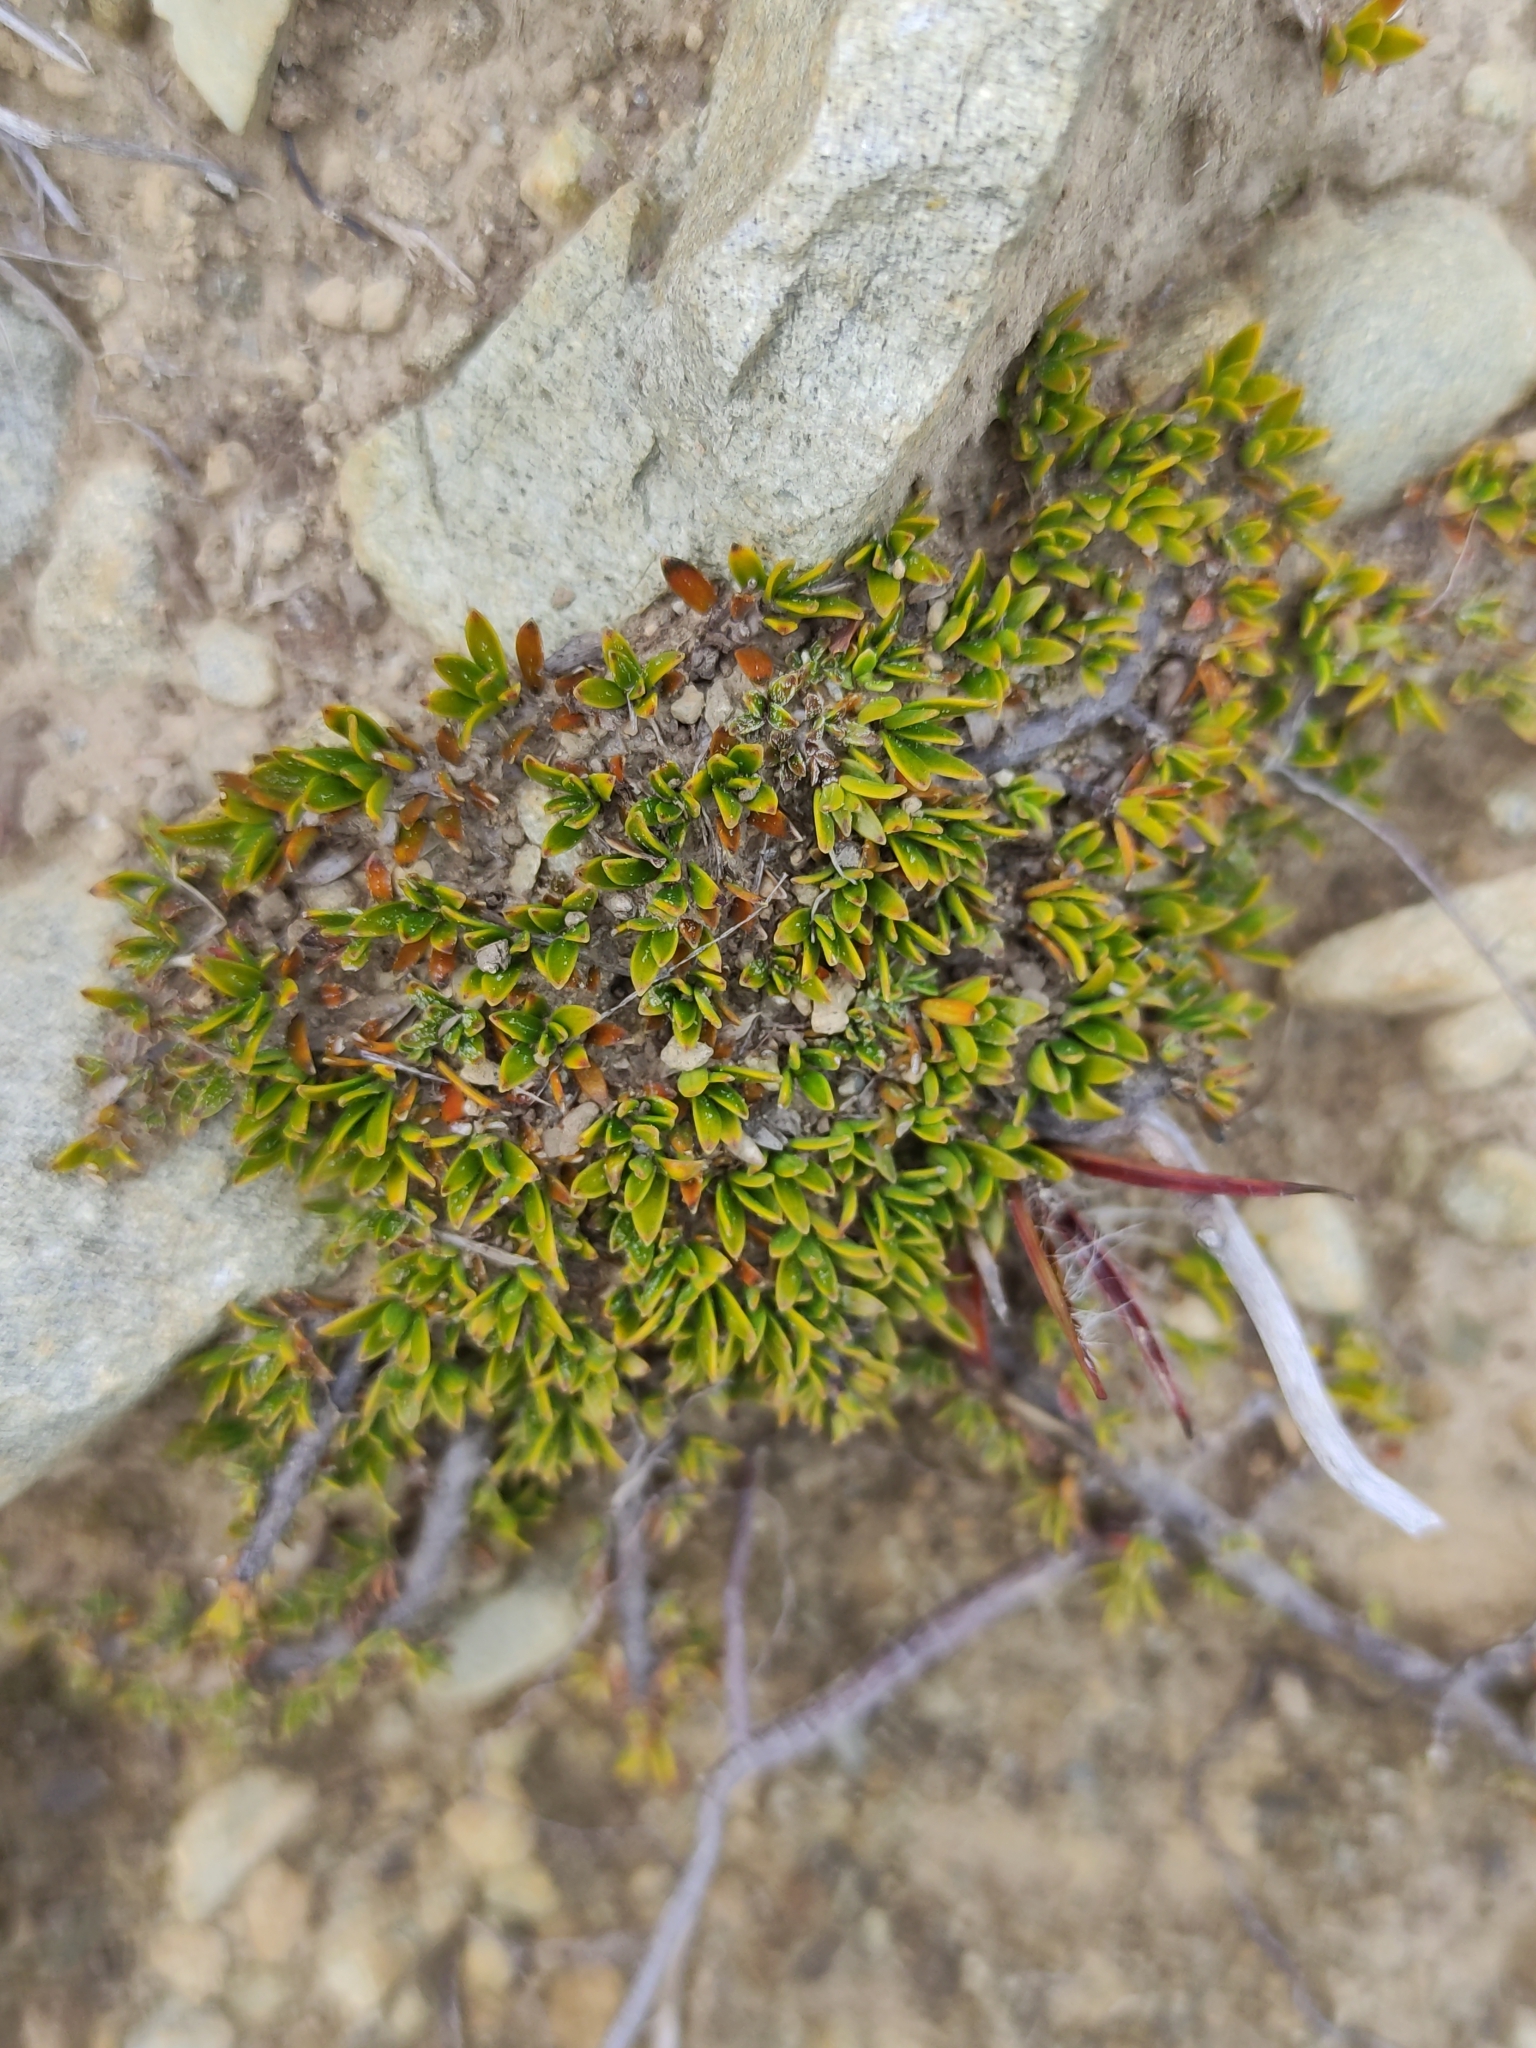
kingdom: Plantae
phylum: Tracheophyta
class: Magnoliopsida
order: Gentianales
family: Rubiaceae
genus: Coprosma
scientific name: Coprosma petriei
